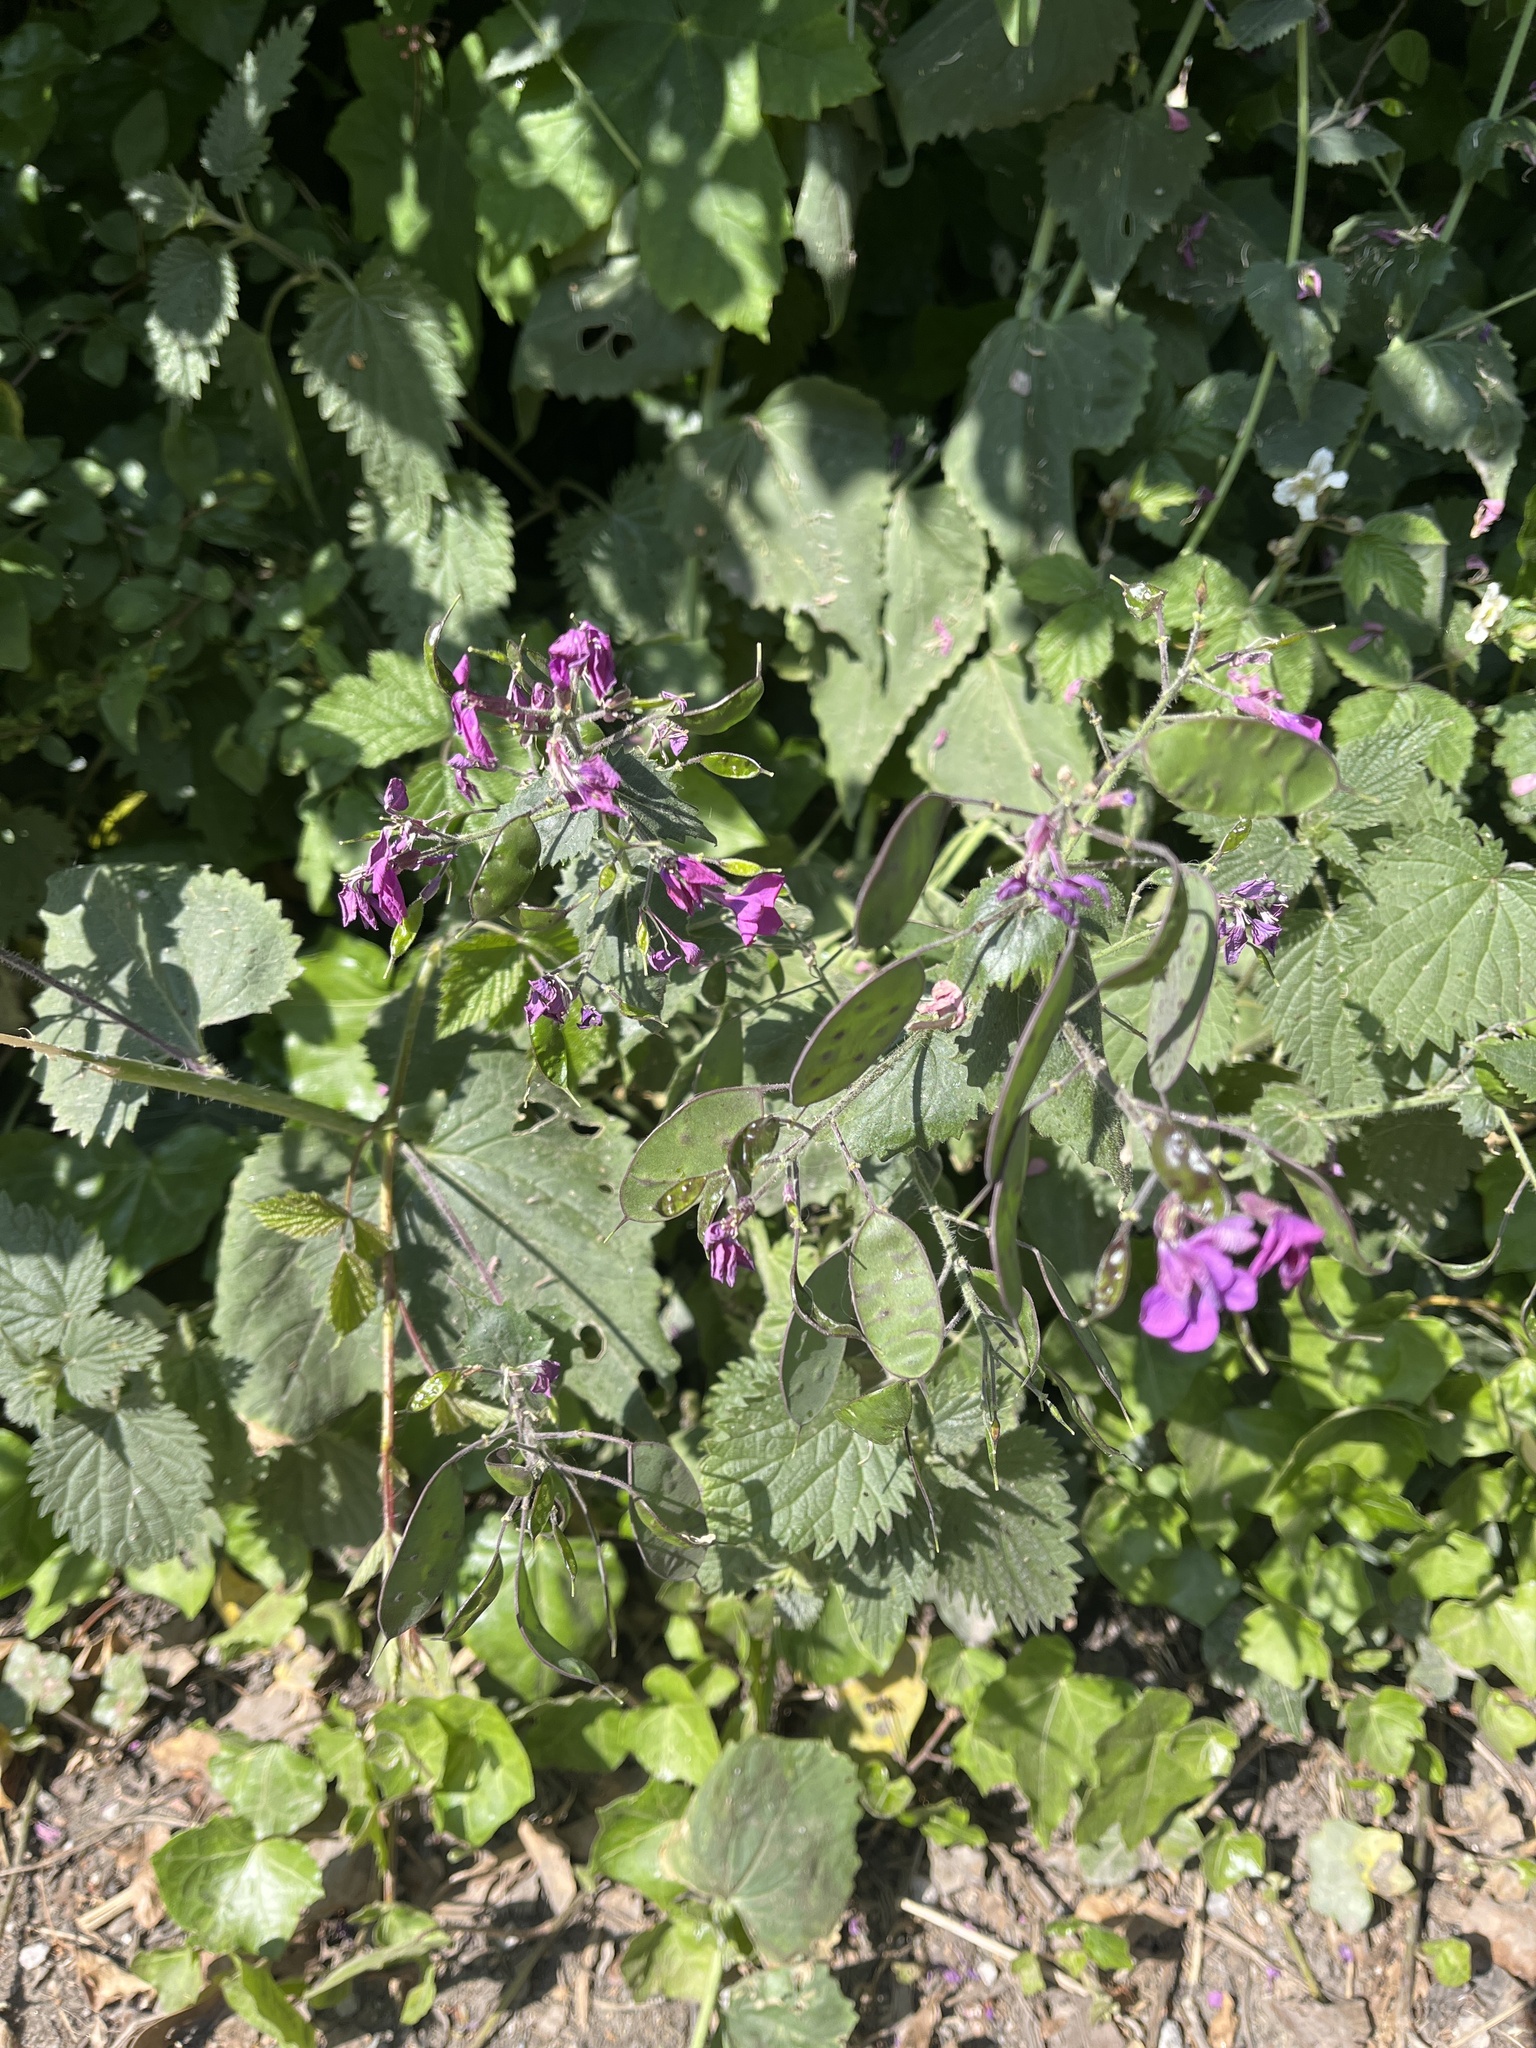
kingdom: Plantae
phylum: Tracheophyta
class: Magnoliopsida
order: Brassicales
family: Brassicaceae
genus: Lunaria
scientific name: Lunaria annua
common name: Honesty
